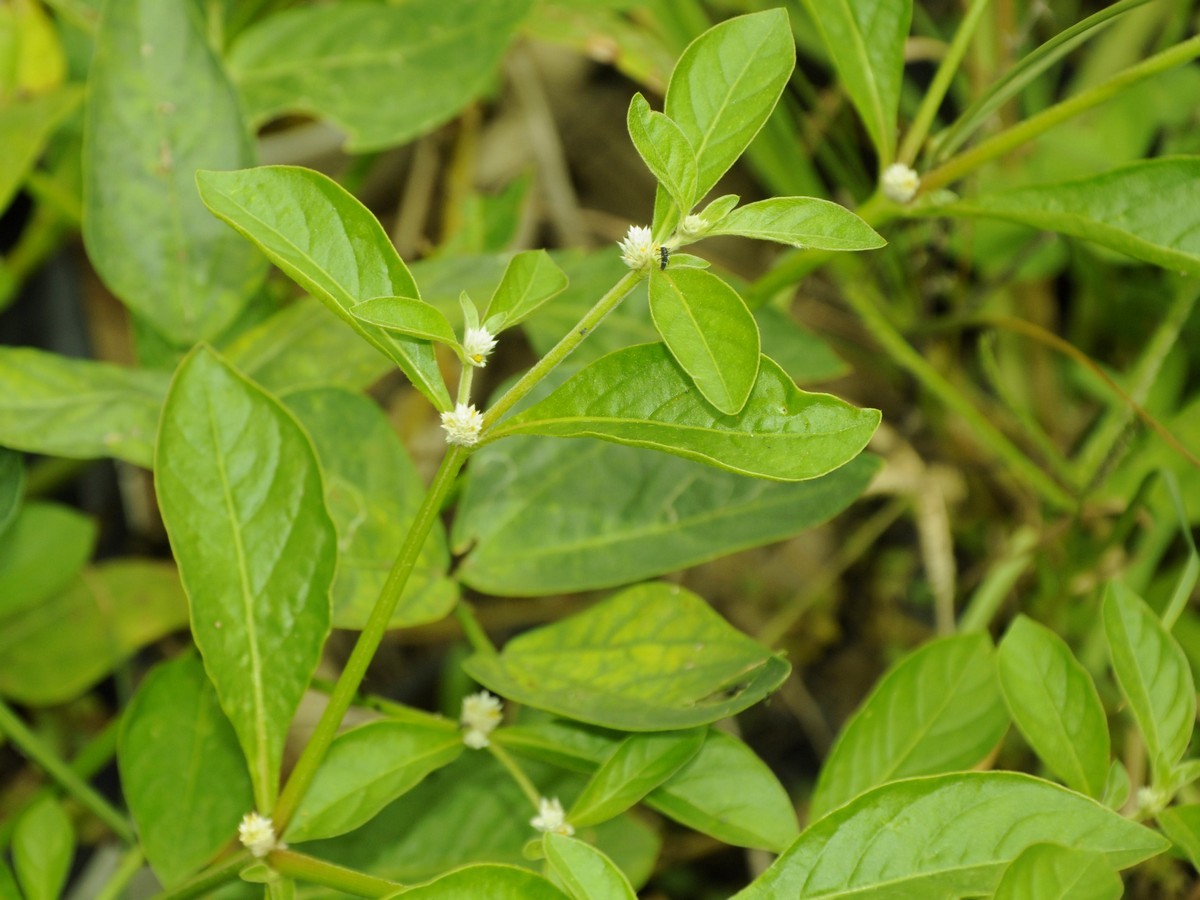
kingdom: Plantae
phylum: Tracheophyta
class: Magnoliopsida
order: Caryophyllales
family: Amaranthaceae
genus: Alternanthera
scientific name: Alternanthera sessilis
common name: Sessile joyweed
